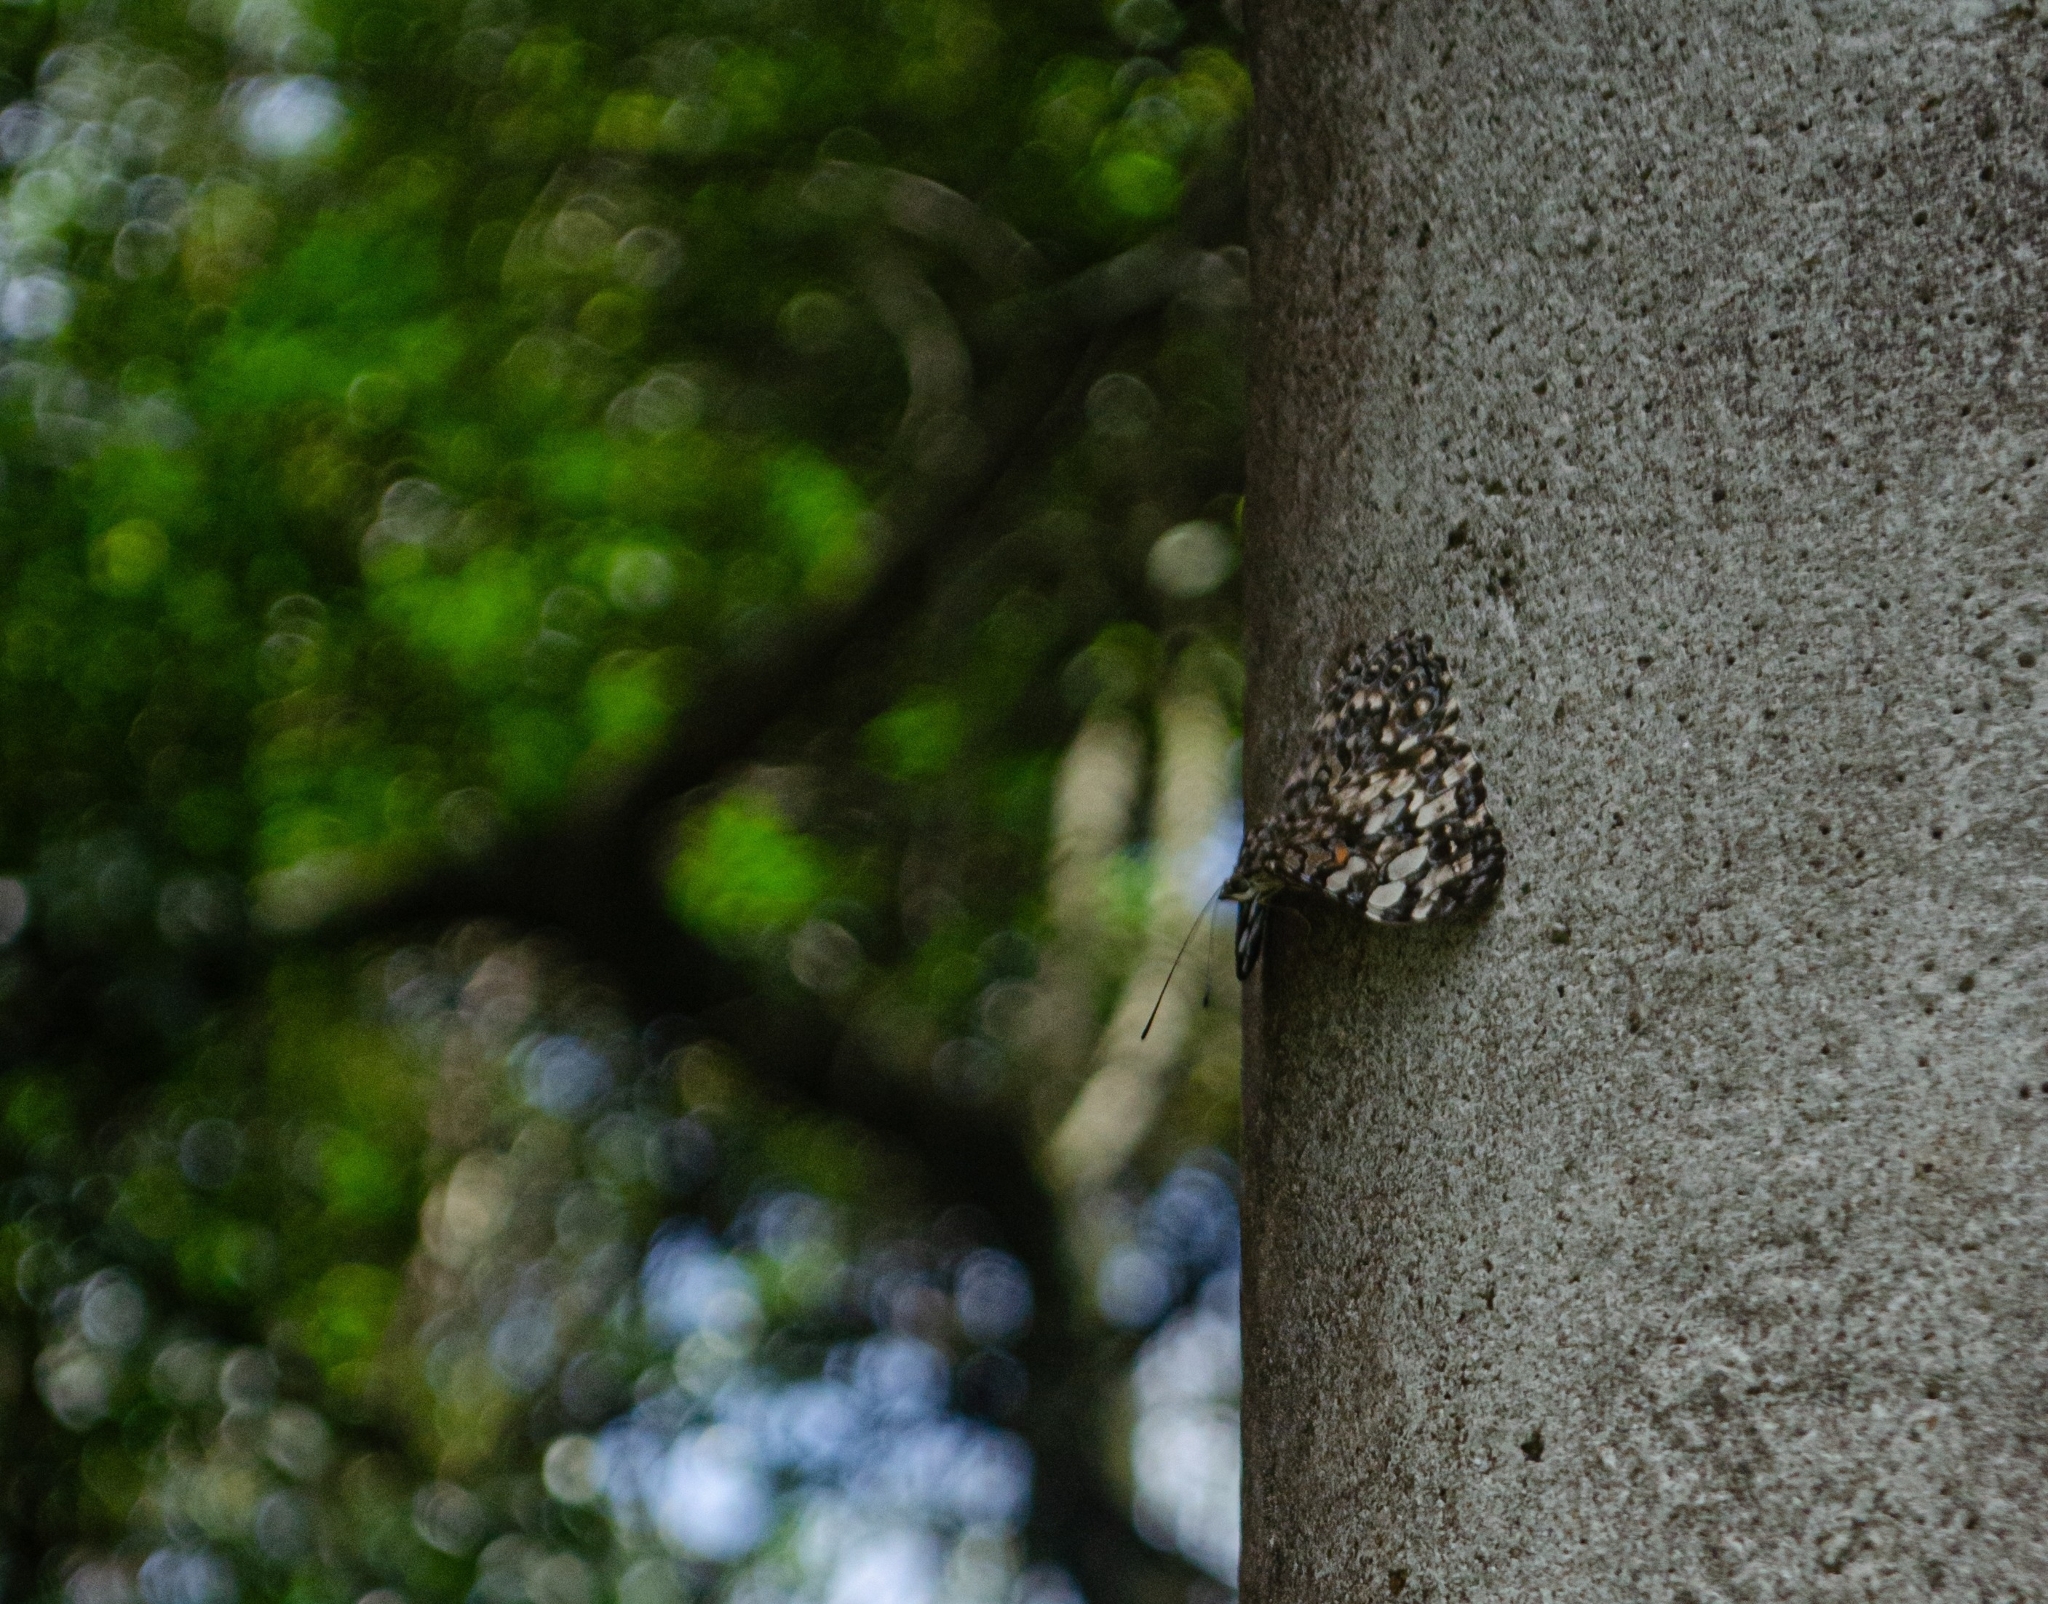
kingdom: Animalia
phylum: Arthropoda
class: Insecta
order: Lepidoptera
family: Nymphalidae
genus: Hamadryas
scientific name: Hamadryas epinome
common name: Epinome cracker
